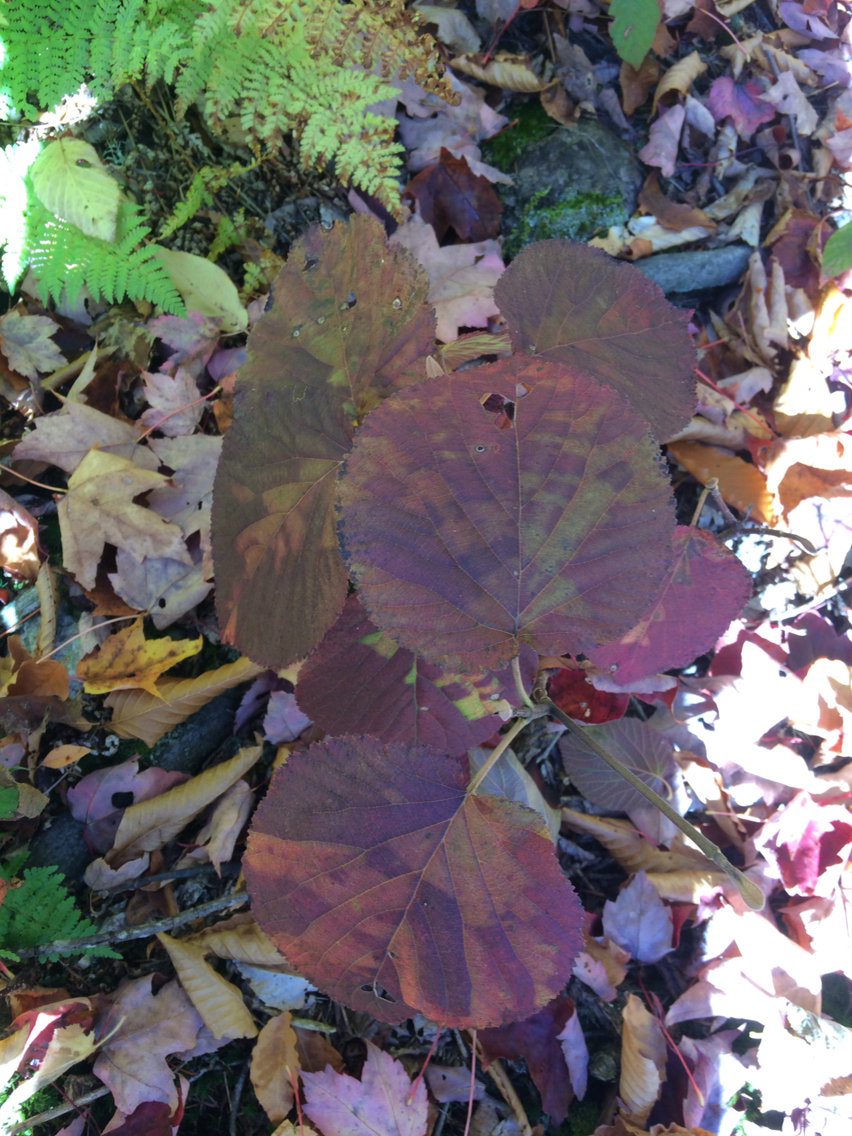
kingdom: Plantae
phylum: Tracheophyta
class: Magnoliopsida
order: Dipsacales
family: Viburnaceae
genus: Viburnum
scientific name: Viburnum lantanoides
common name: Hobblebush
